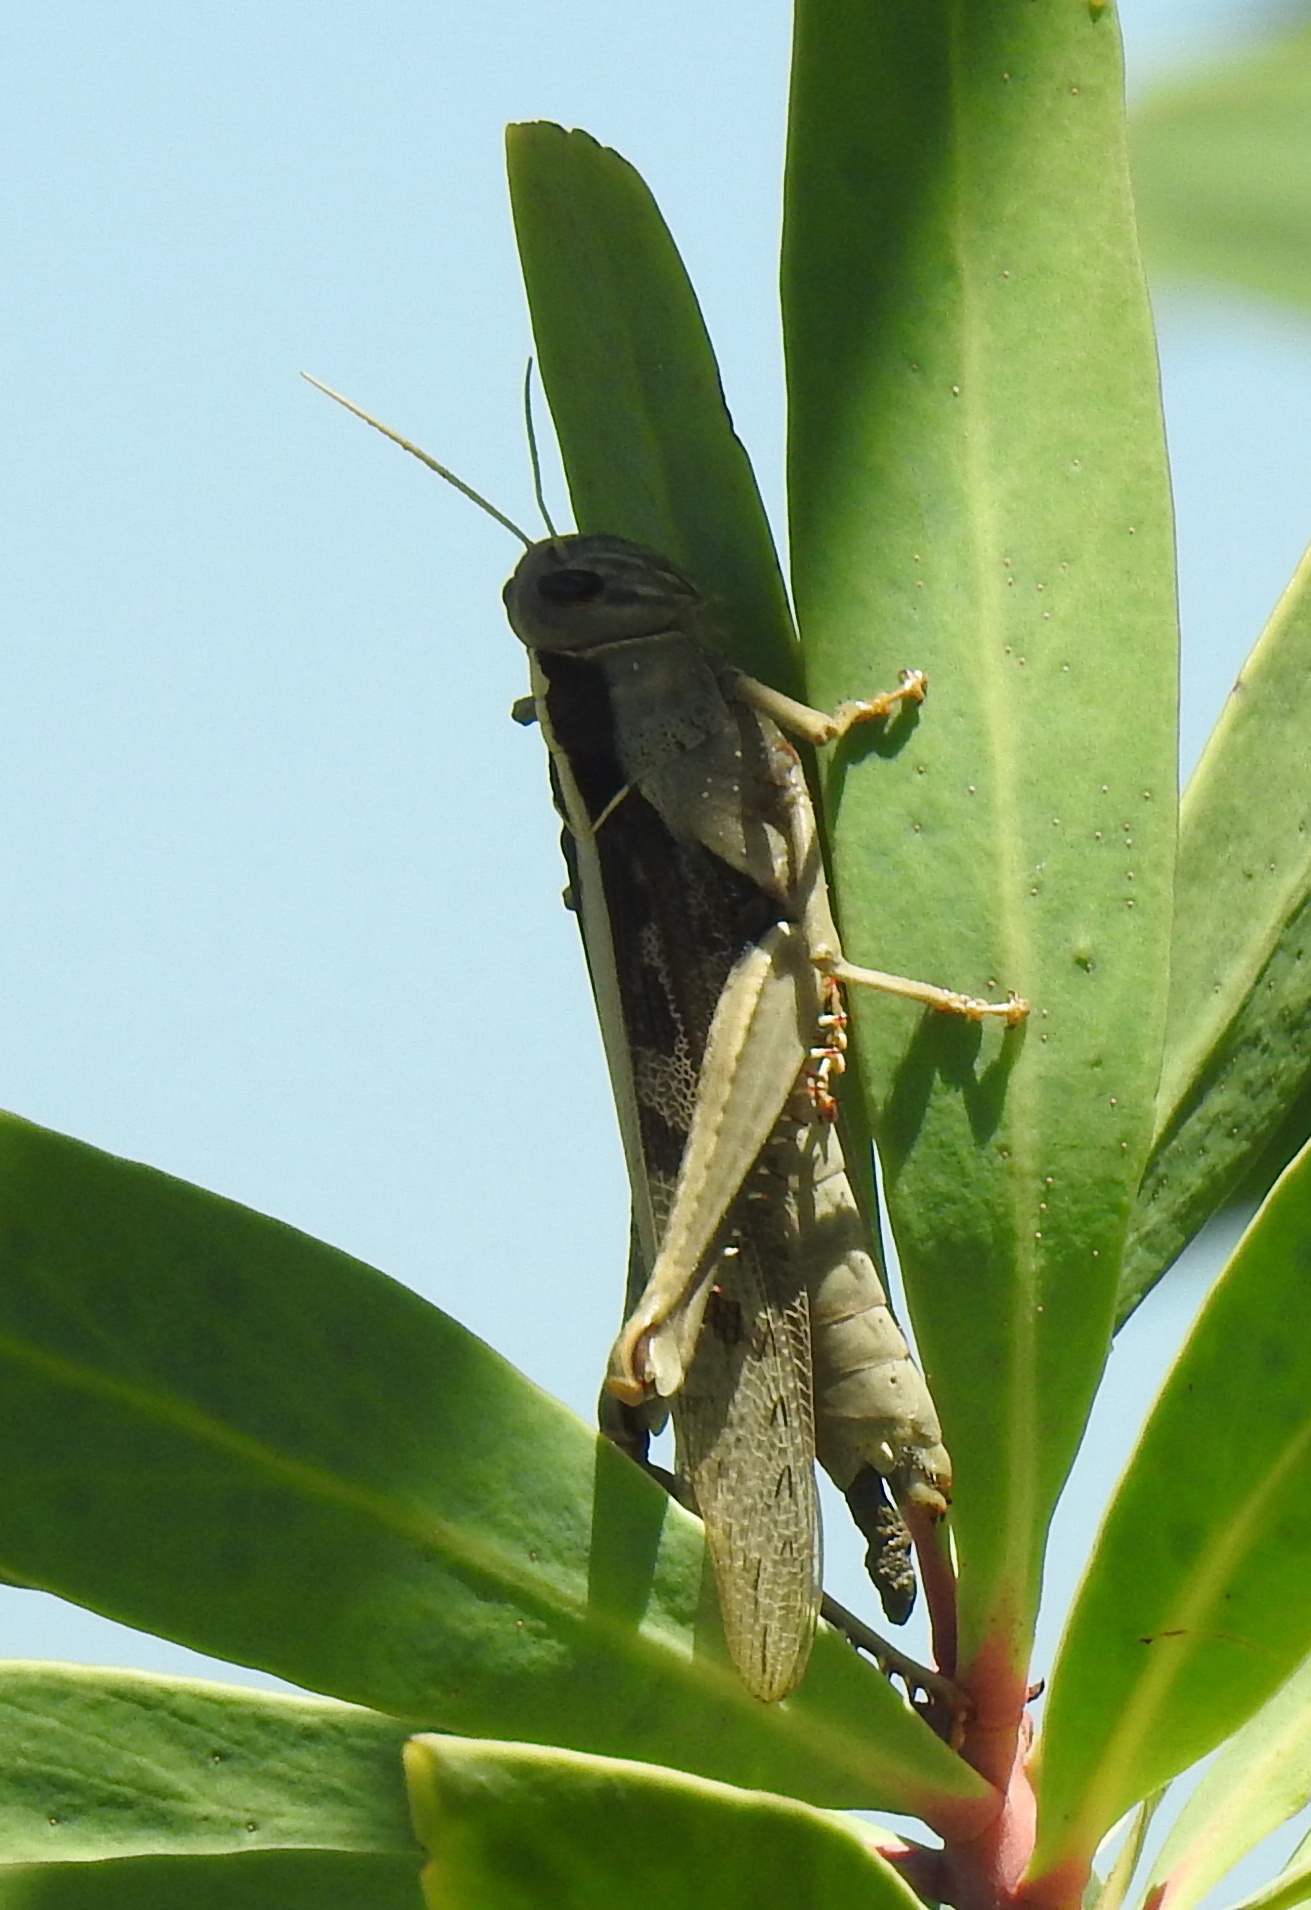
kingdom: Animalia
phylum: Arthropoda
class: Insecta
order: Orthoptera
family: Acrididae
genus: Acanthacris
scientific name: Acanthacris ruficornis
